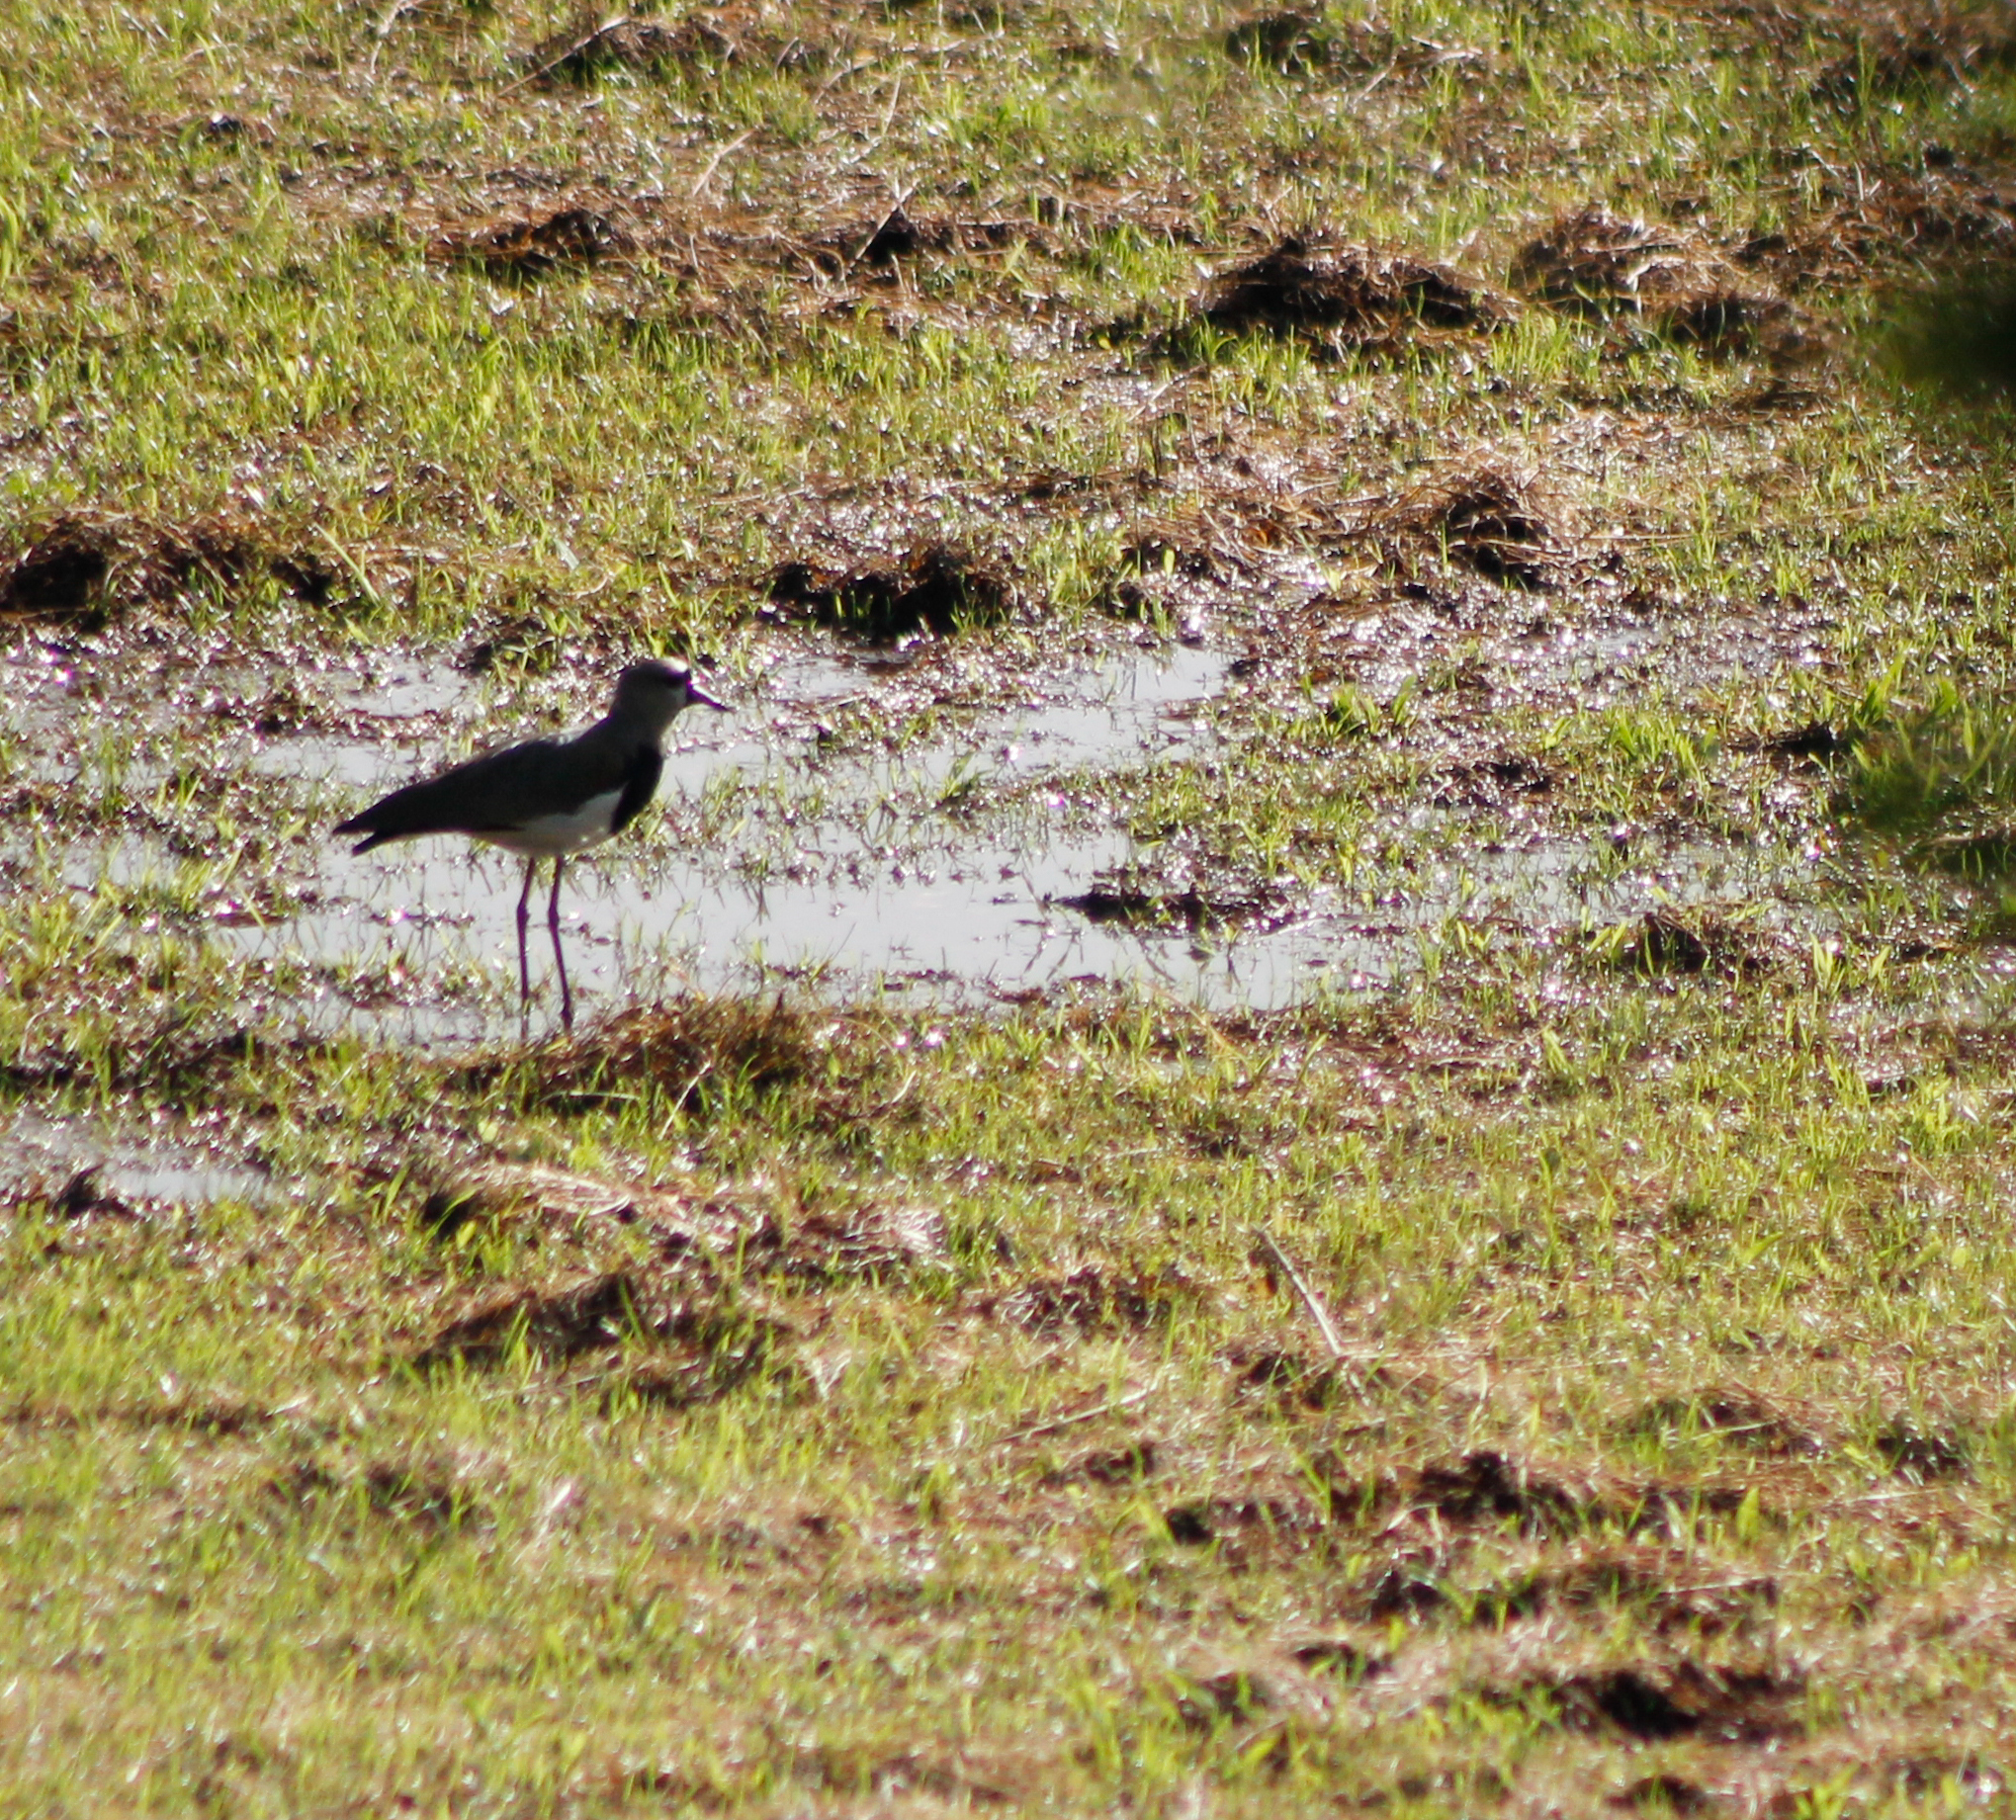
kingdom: Animalia
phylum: Chordata
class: Aves
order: Charadriiformes
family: Charadriidae
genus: Vanellus
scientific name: Vanellus chilensis
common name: Southern lapwing
